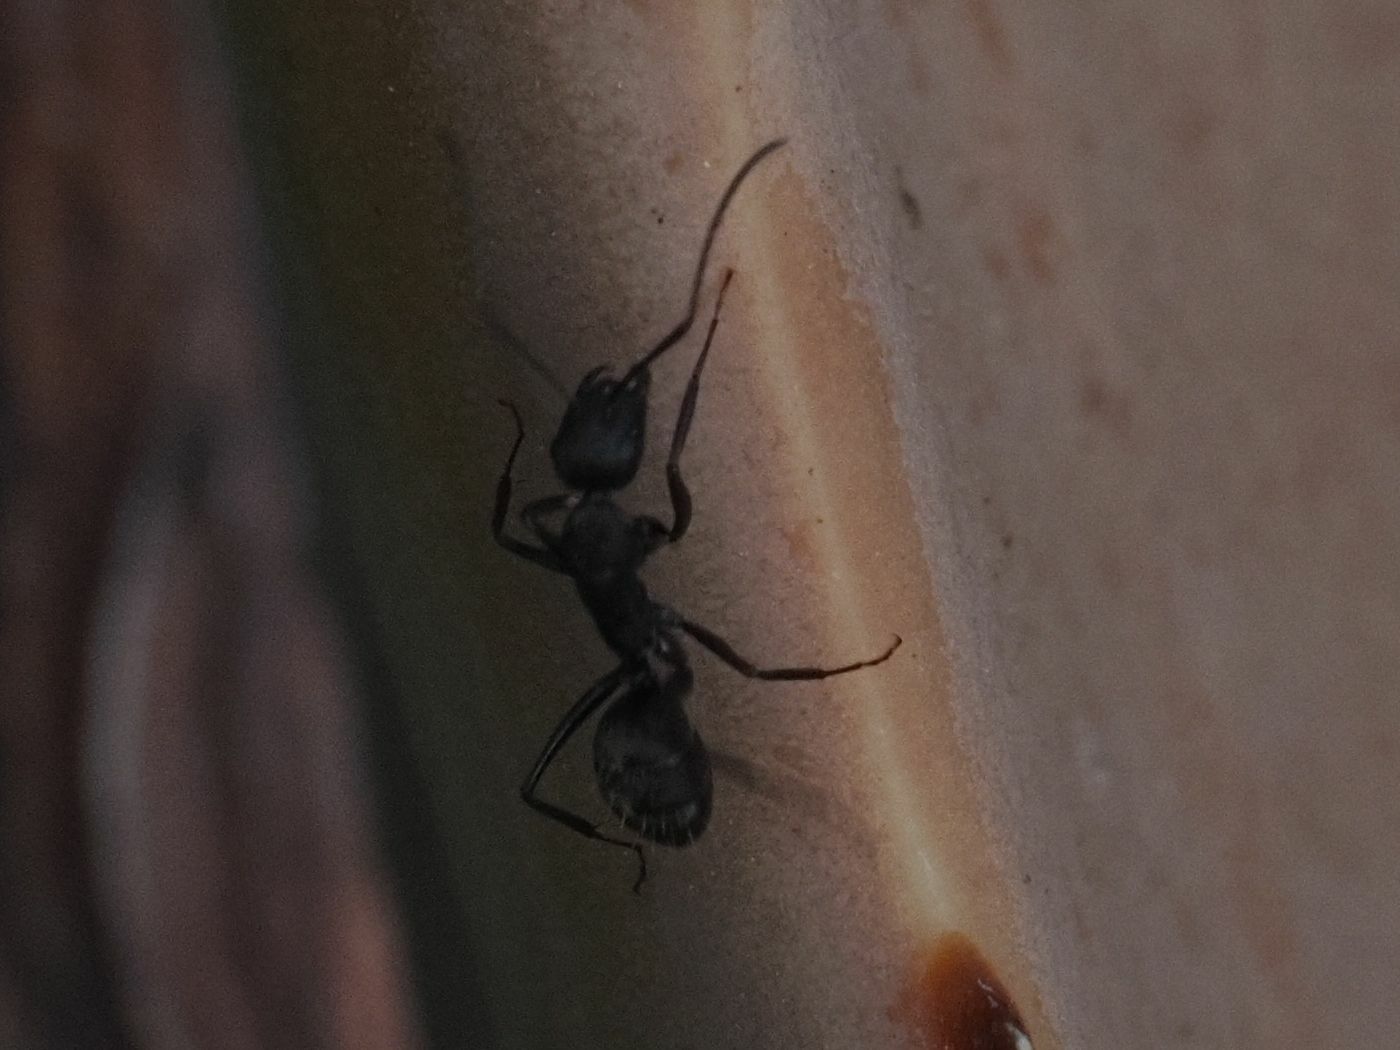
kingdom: Animalia
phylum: Arthropoda
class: Insecta
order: Hymenoptera
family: Formicidae
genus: Camponotus
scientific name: Camponotus feai
